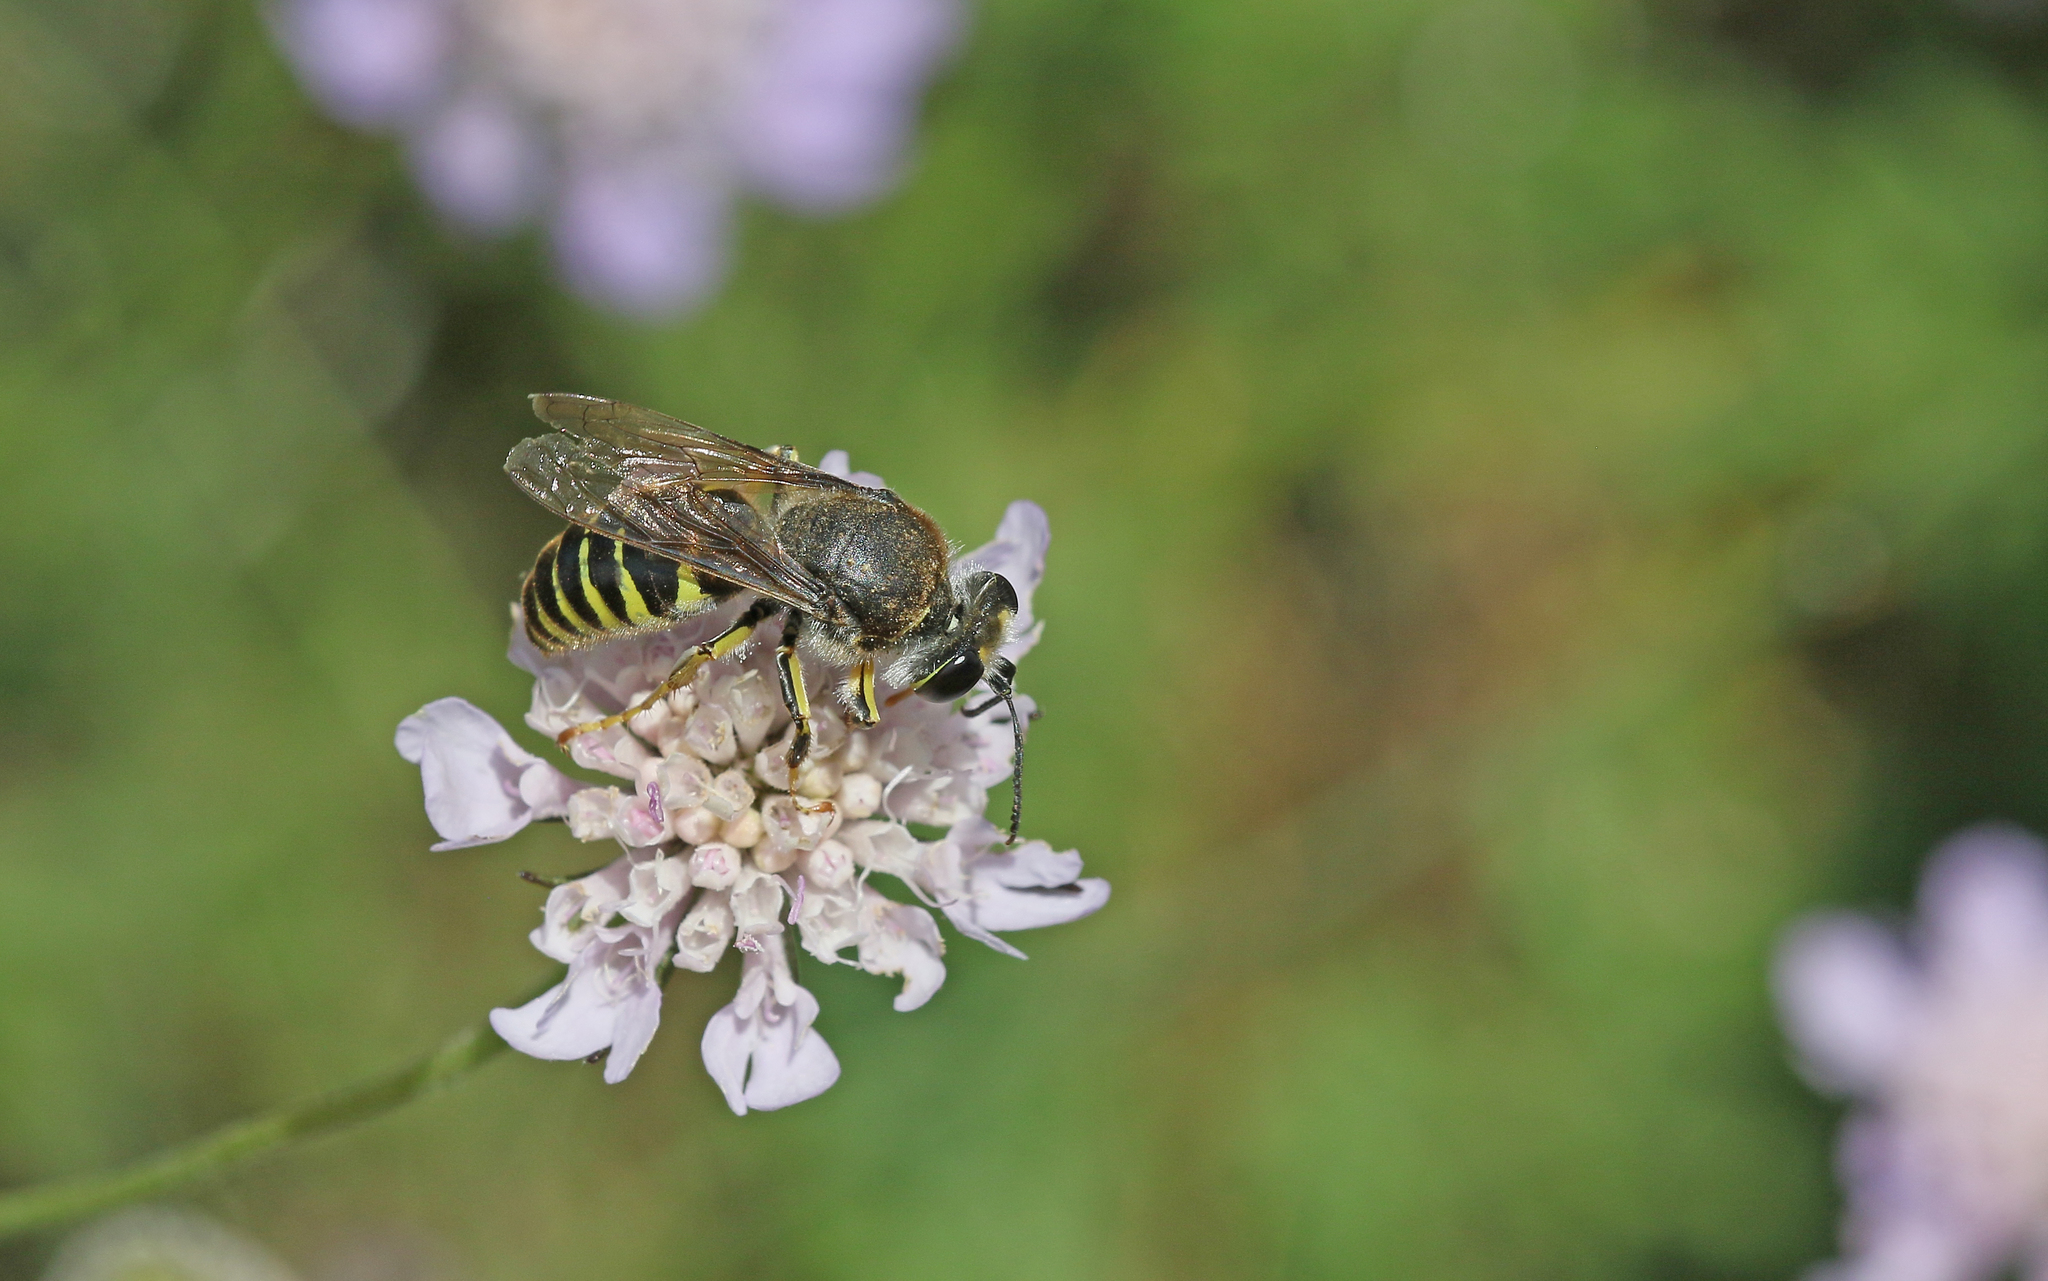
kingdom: Animalia
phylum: Arthropoda
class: Insecta
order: Hymenoptera
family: Crabronidae
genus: Bembix
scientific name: Bembix tarsata
